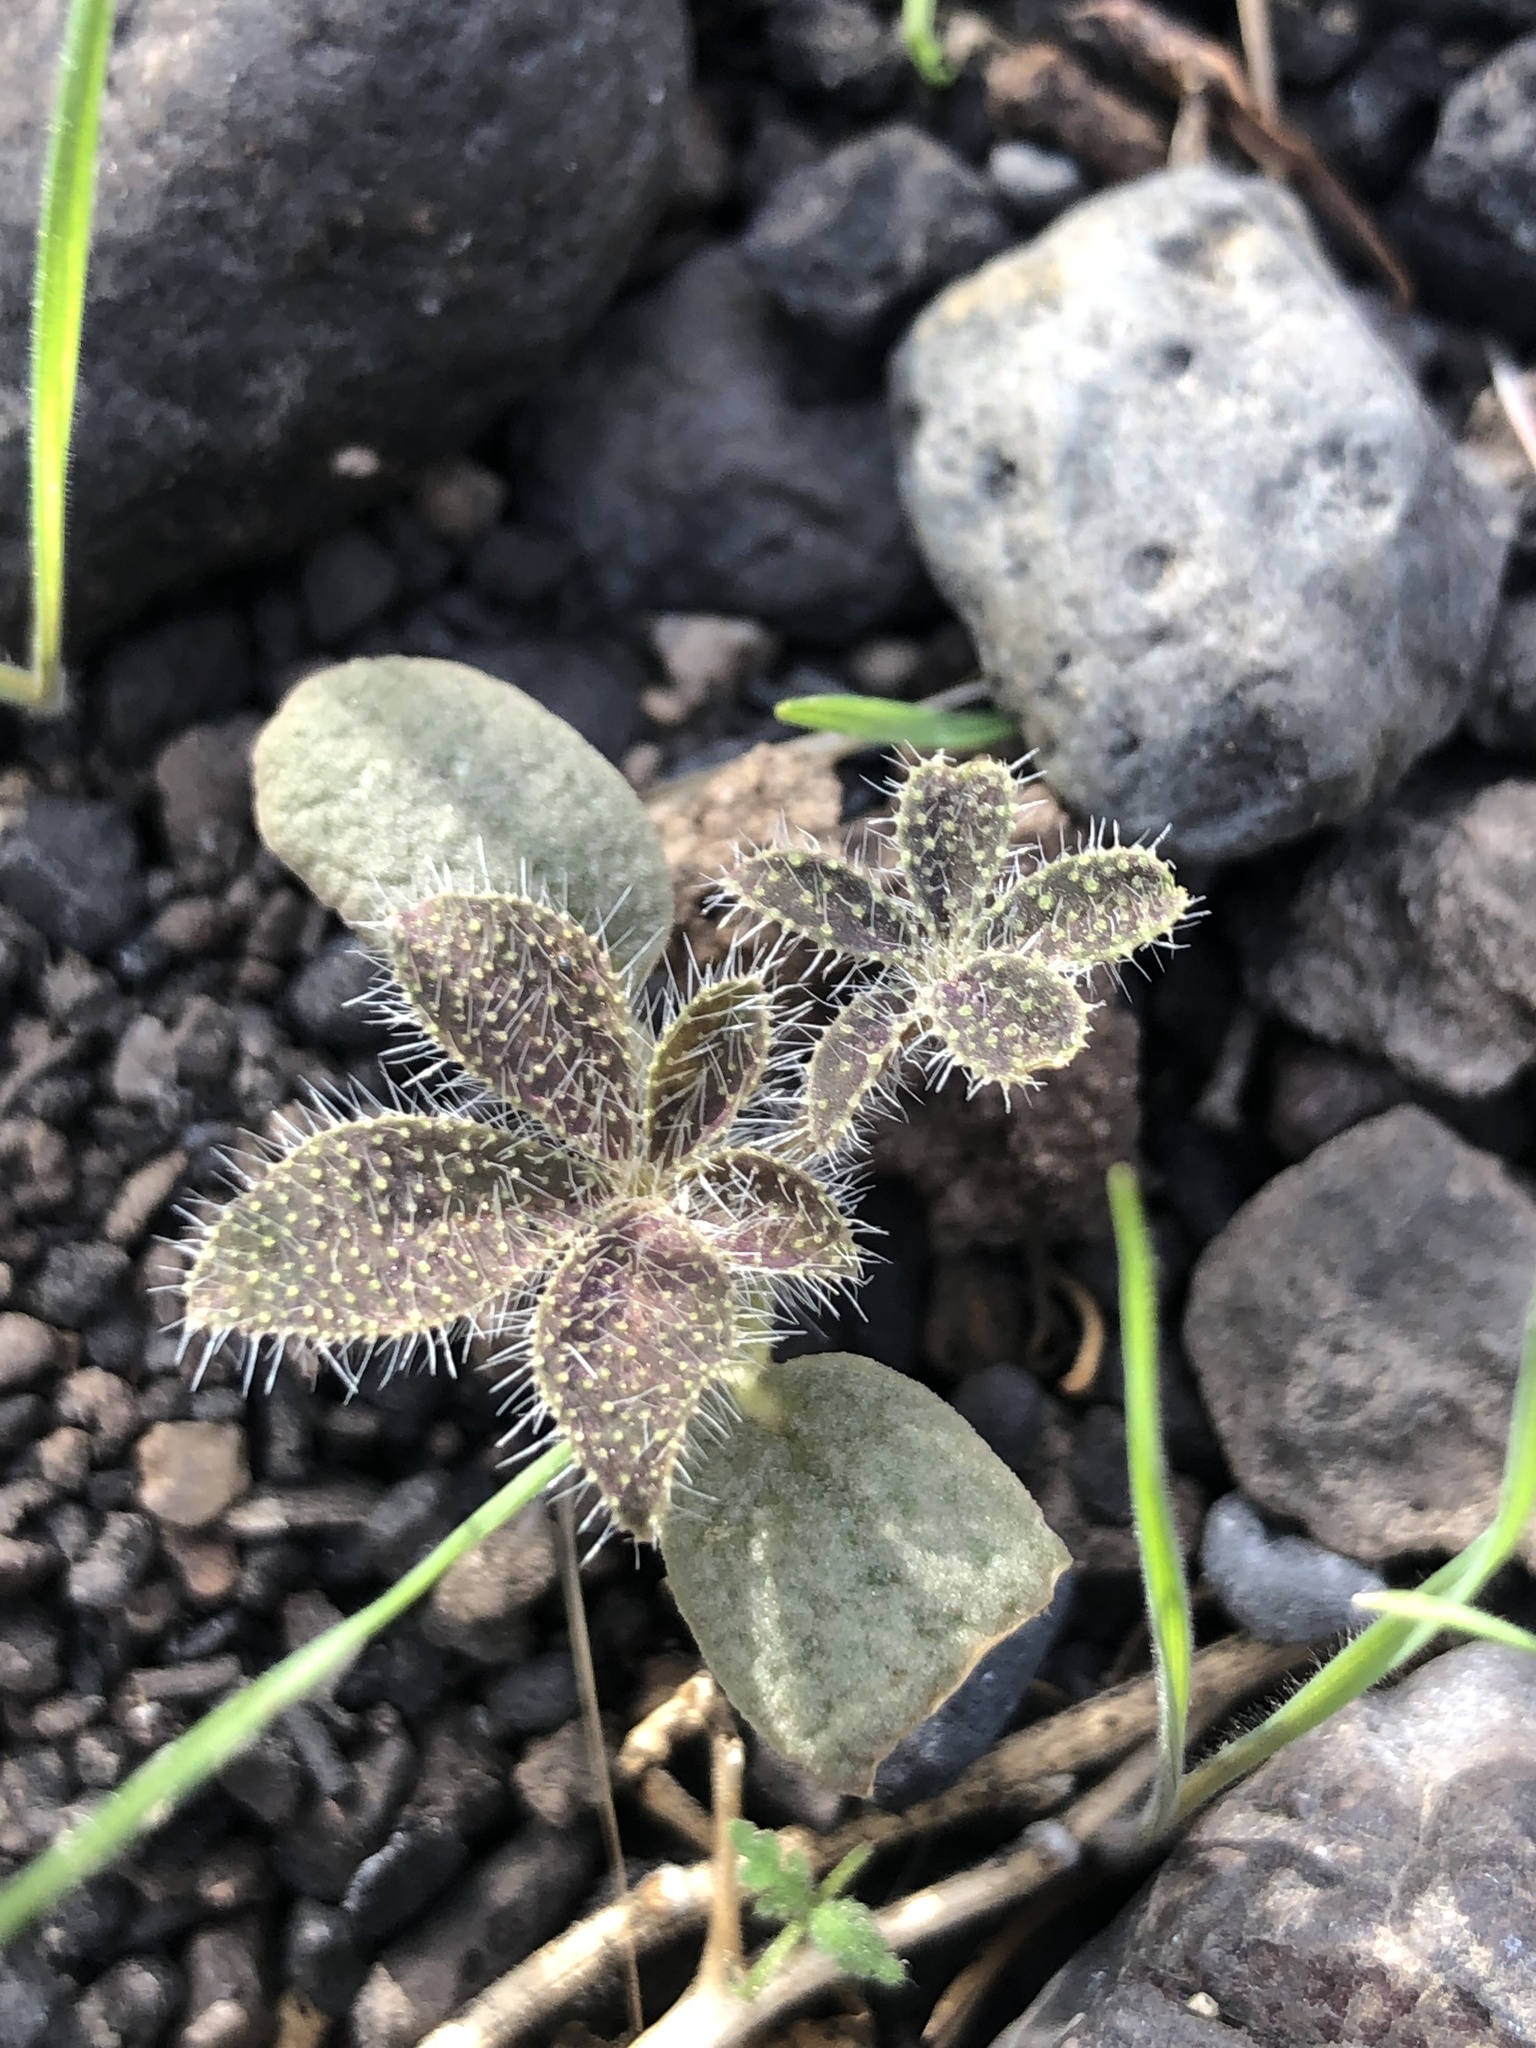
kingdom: Plantae
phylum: Tracheophyta
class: Magnoliopsida
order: Fabales
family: Fabaceae
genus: Lupinus
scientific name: Lupinus hirsutissimus
